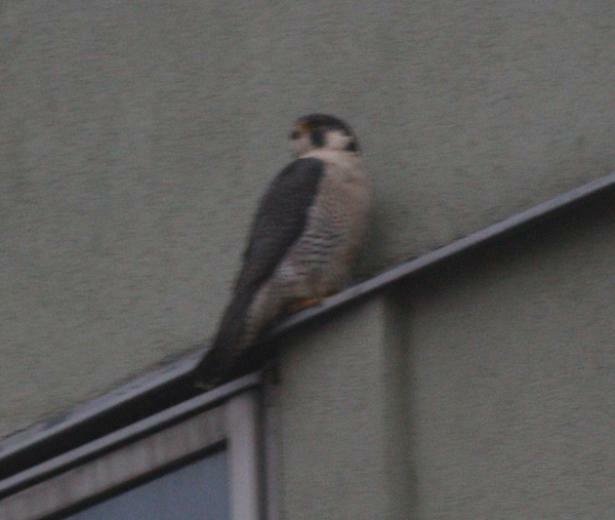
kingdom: Animalia
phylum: Chordata
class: Aves
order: Falconiformes
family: Falconidae
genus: Falco
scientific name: Falco peregrinus
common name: Peregrine falcon
